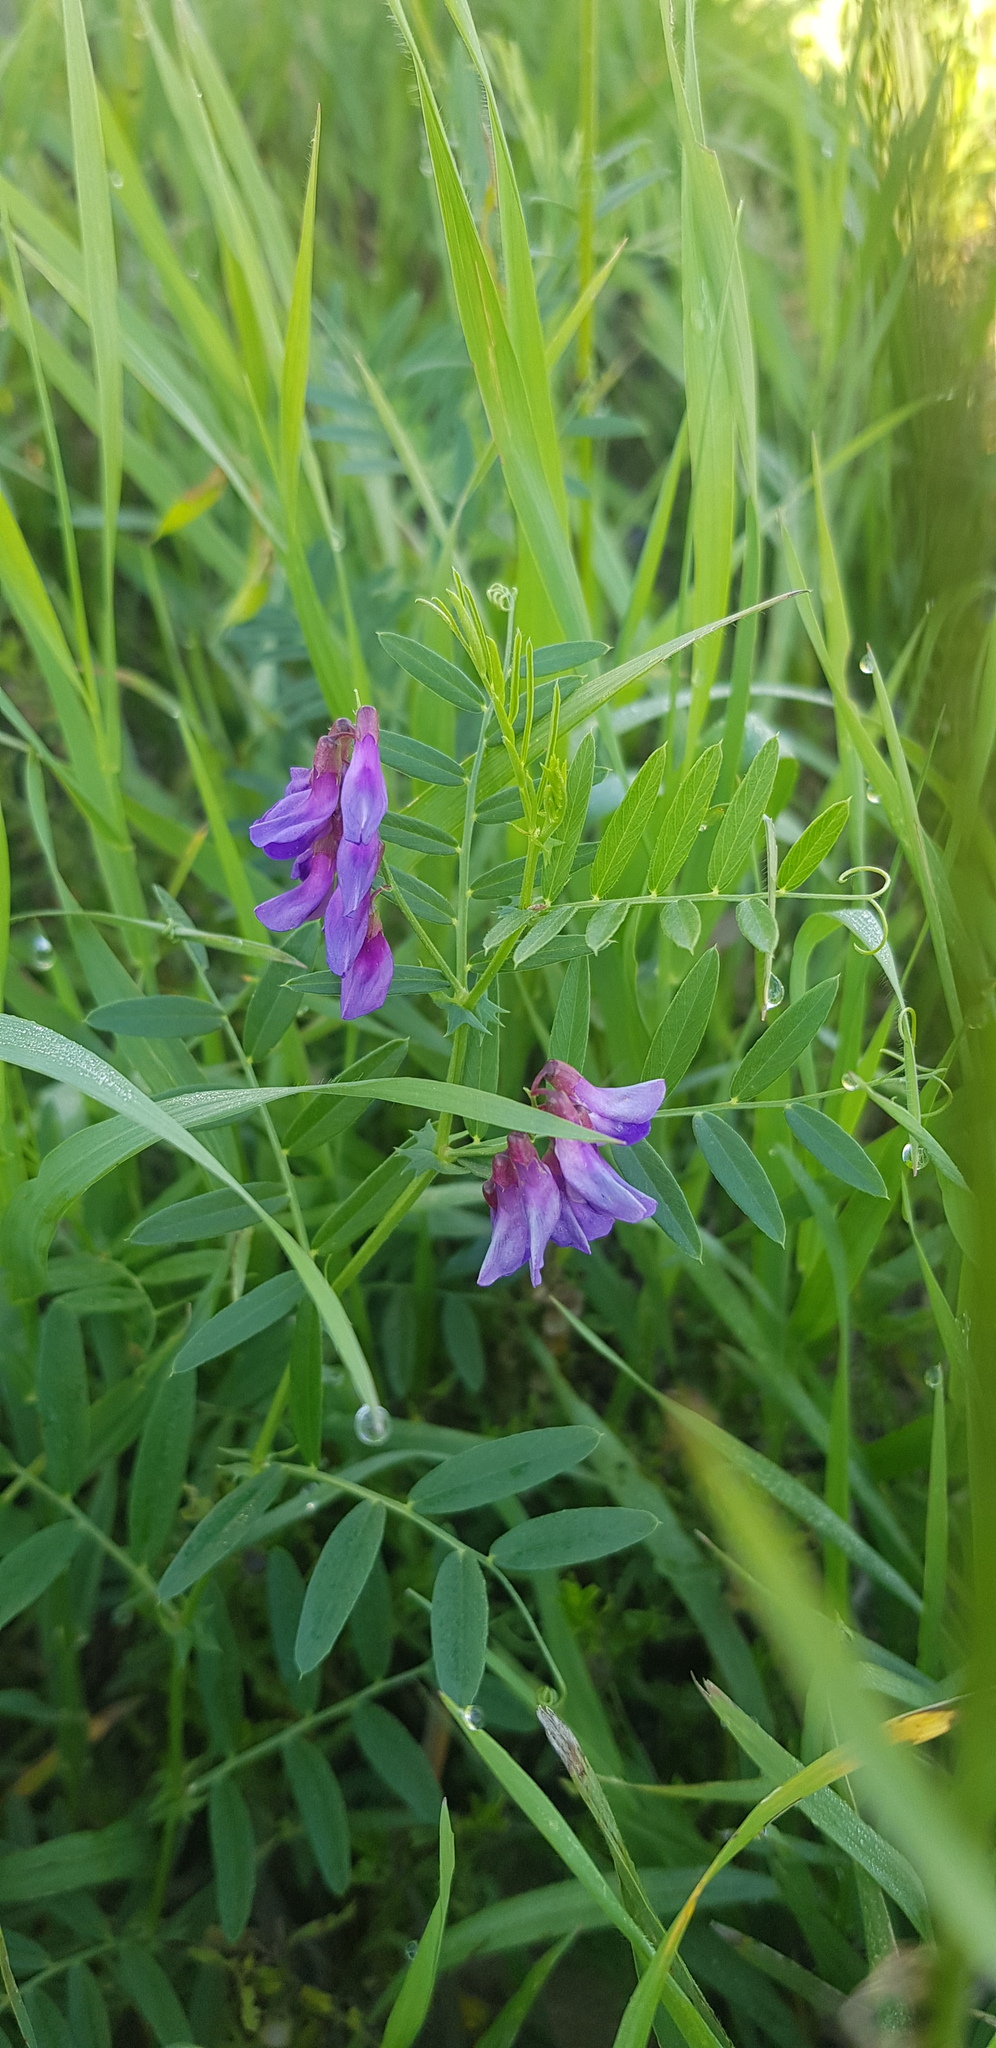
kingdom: Plantae
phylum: Tracheophyta
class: Magnoliopsida
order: Fabales
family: Fabaceae
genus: Vicia
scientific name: Vicia amoena
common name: Cheder ebs
